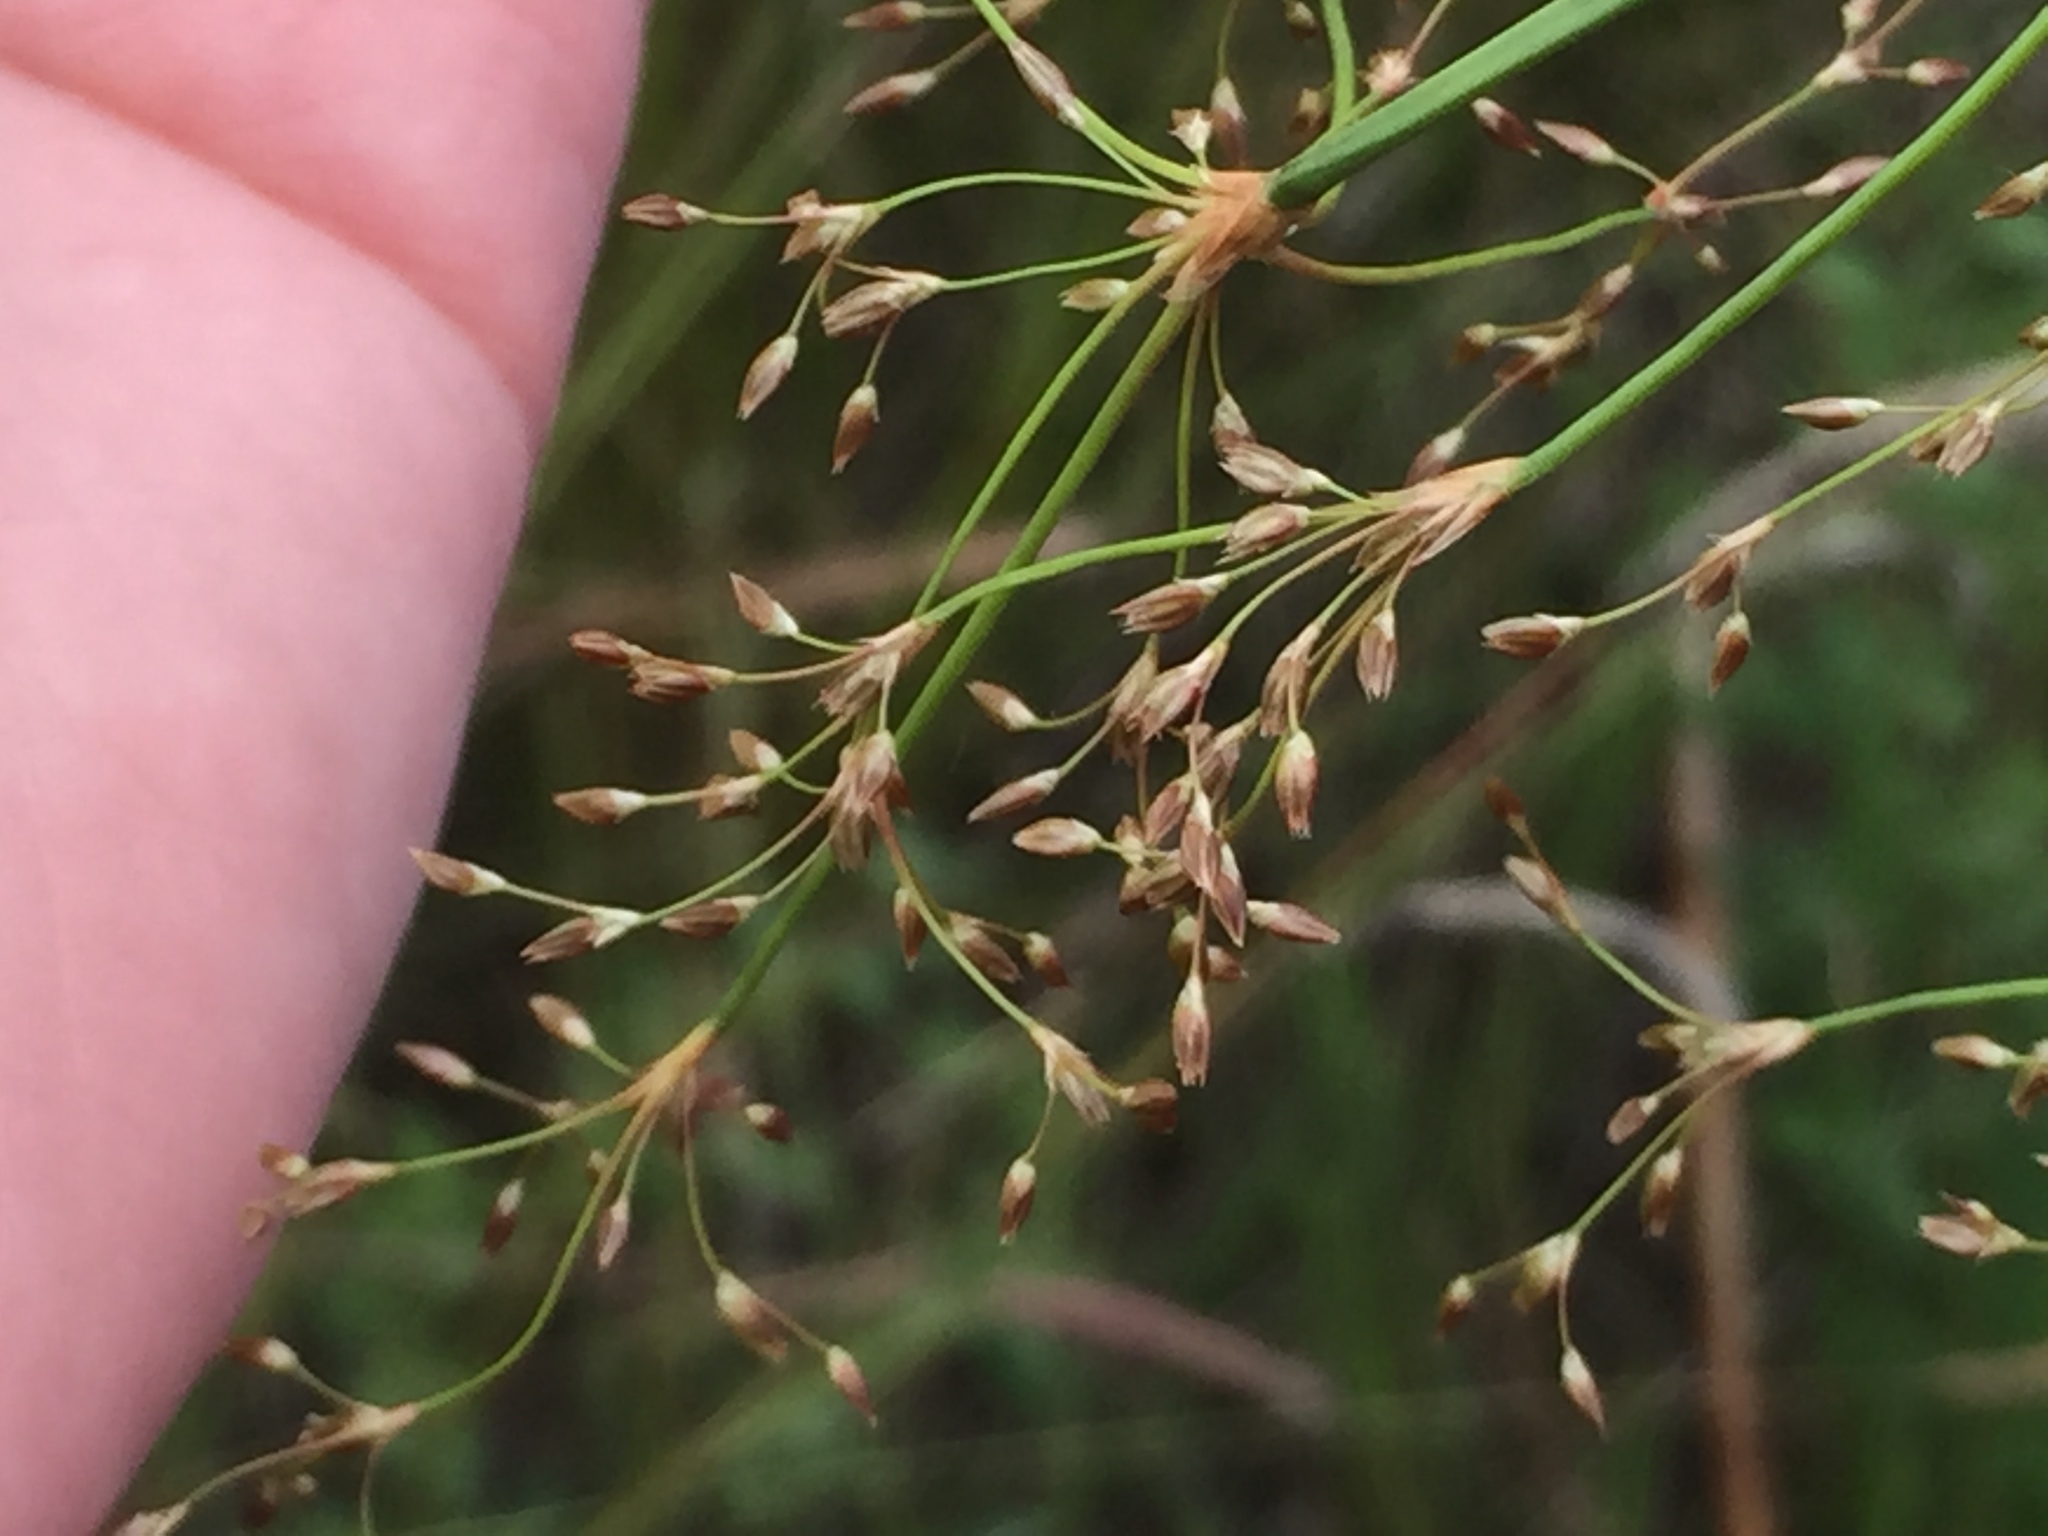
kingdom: Plantae
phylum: Tracheophyta
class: Liliopsida
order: Poales
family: Juncaceae
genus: Juncus
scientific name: Juncus effusus
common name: Soft rush
